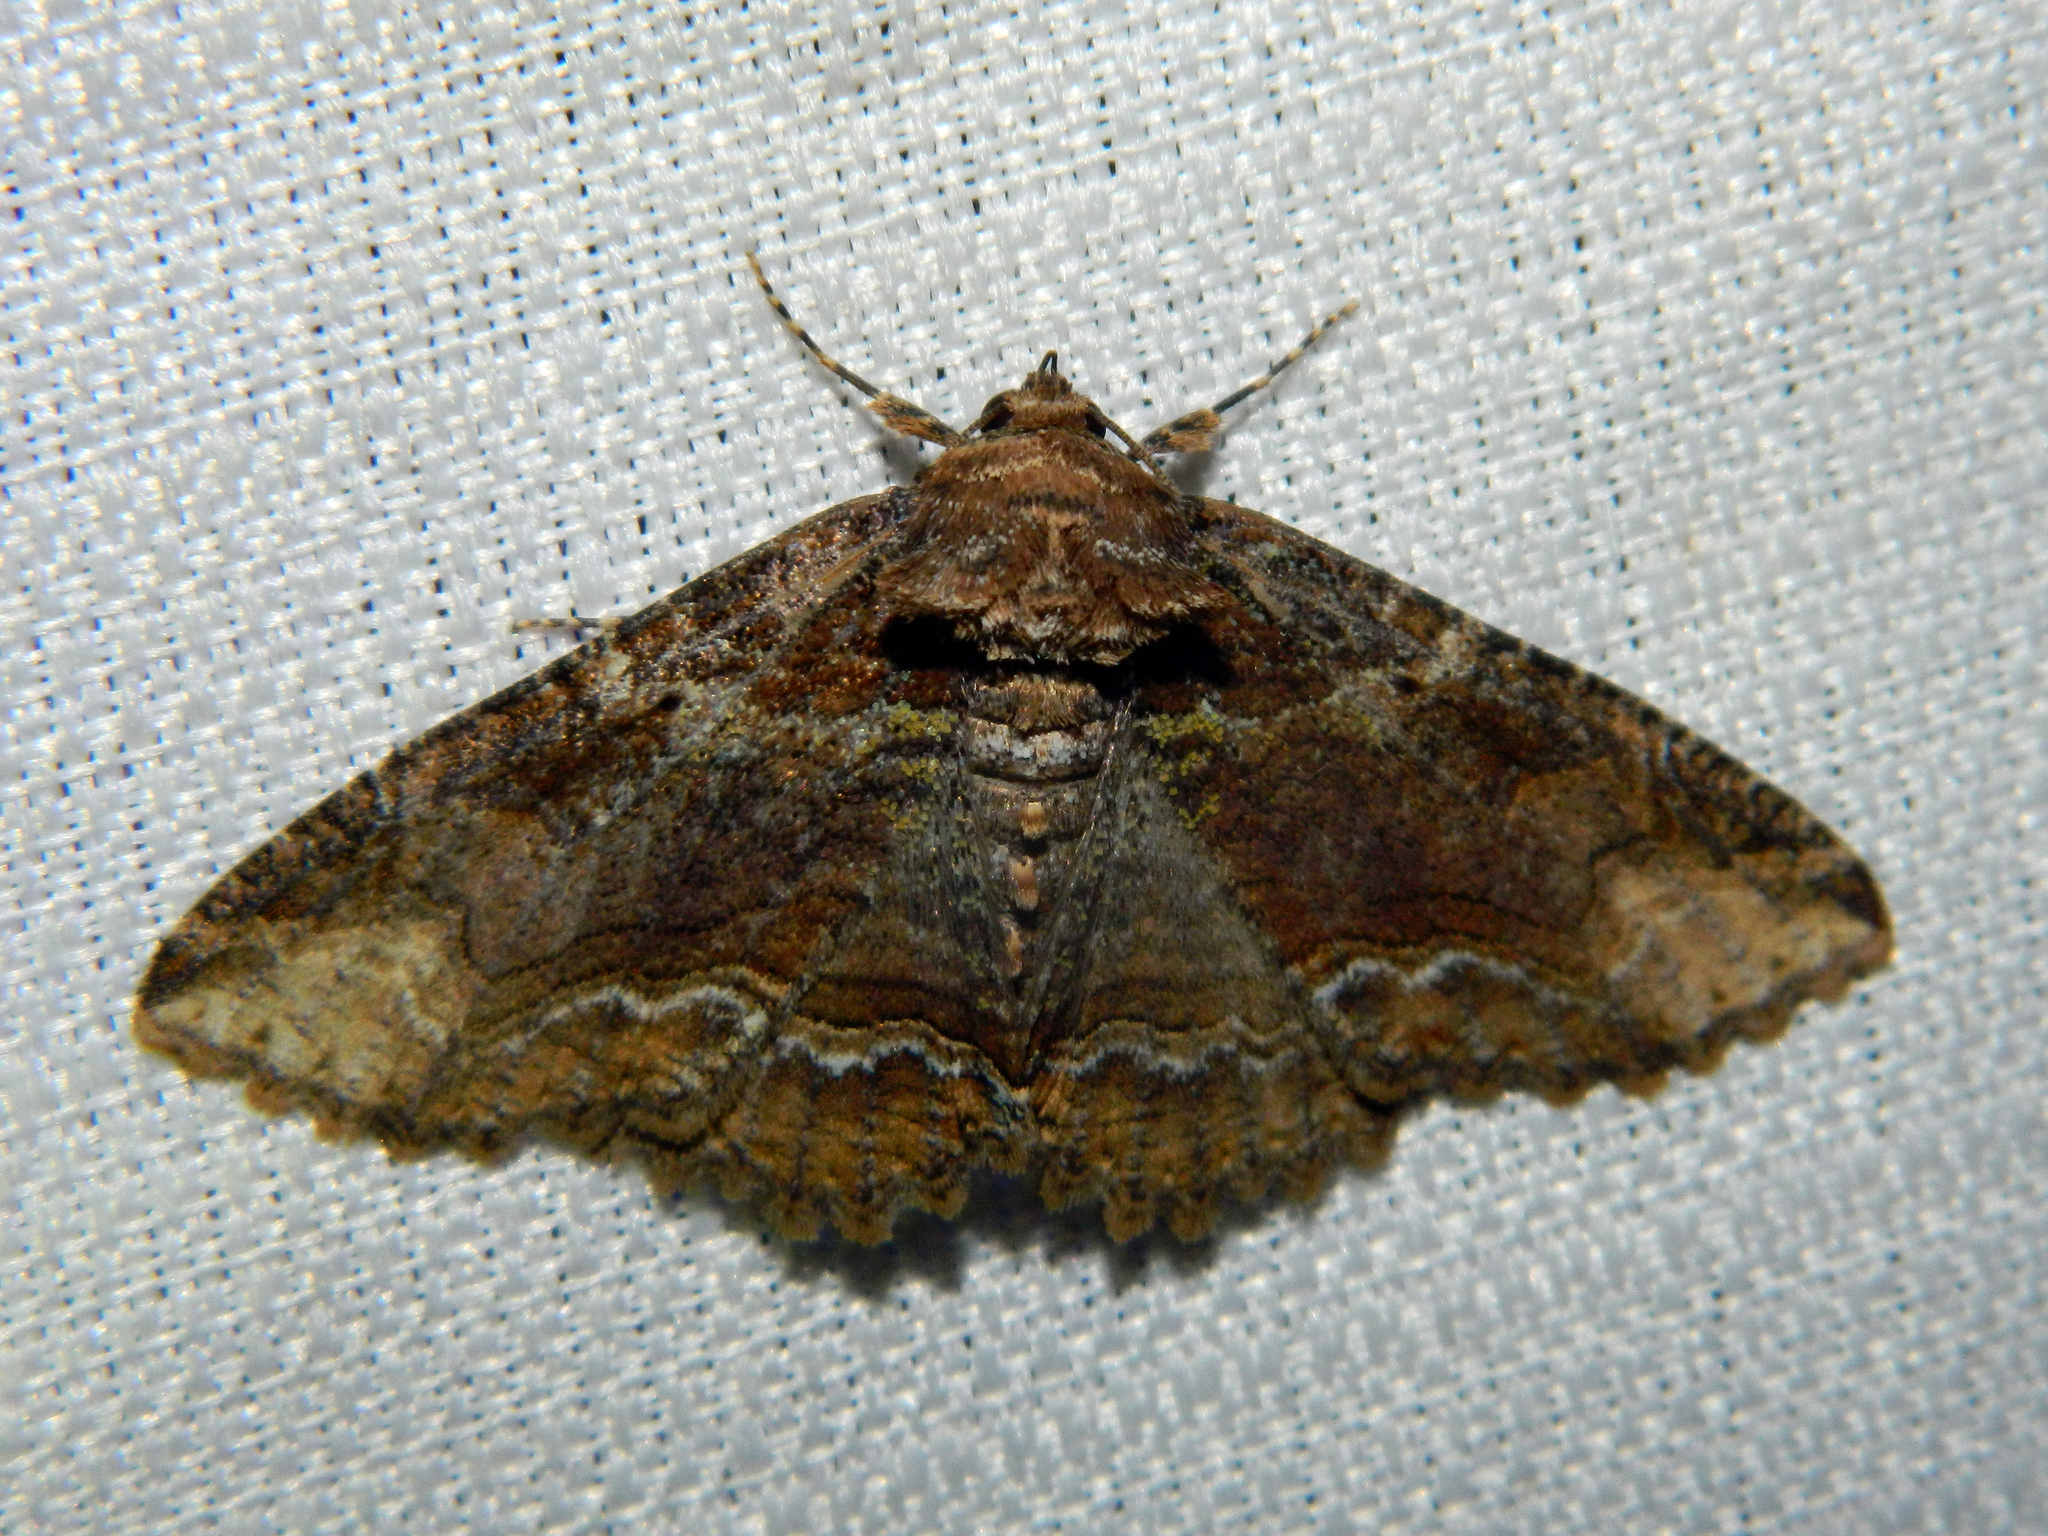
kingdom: Animalia
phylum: Arthropoda
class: Insecta
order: Lepidoptera
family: Erebidae
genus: Zale
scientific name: Zale minerea
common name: Colorful zale moth
